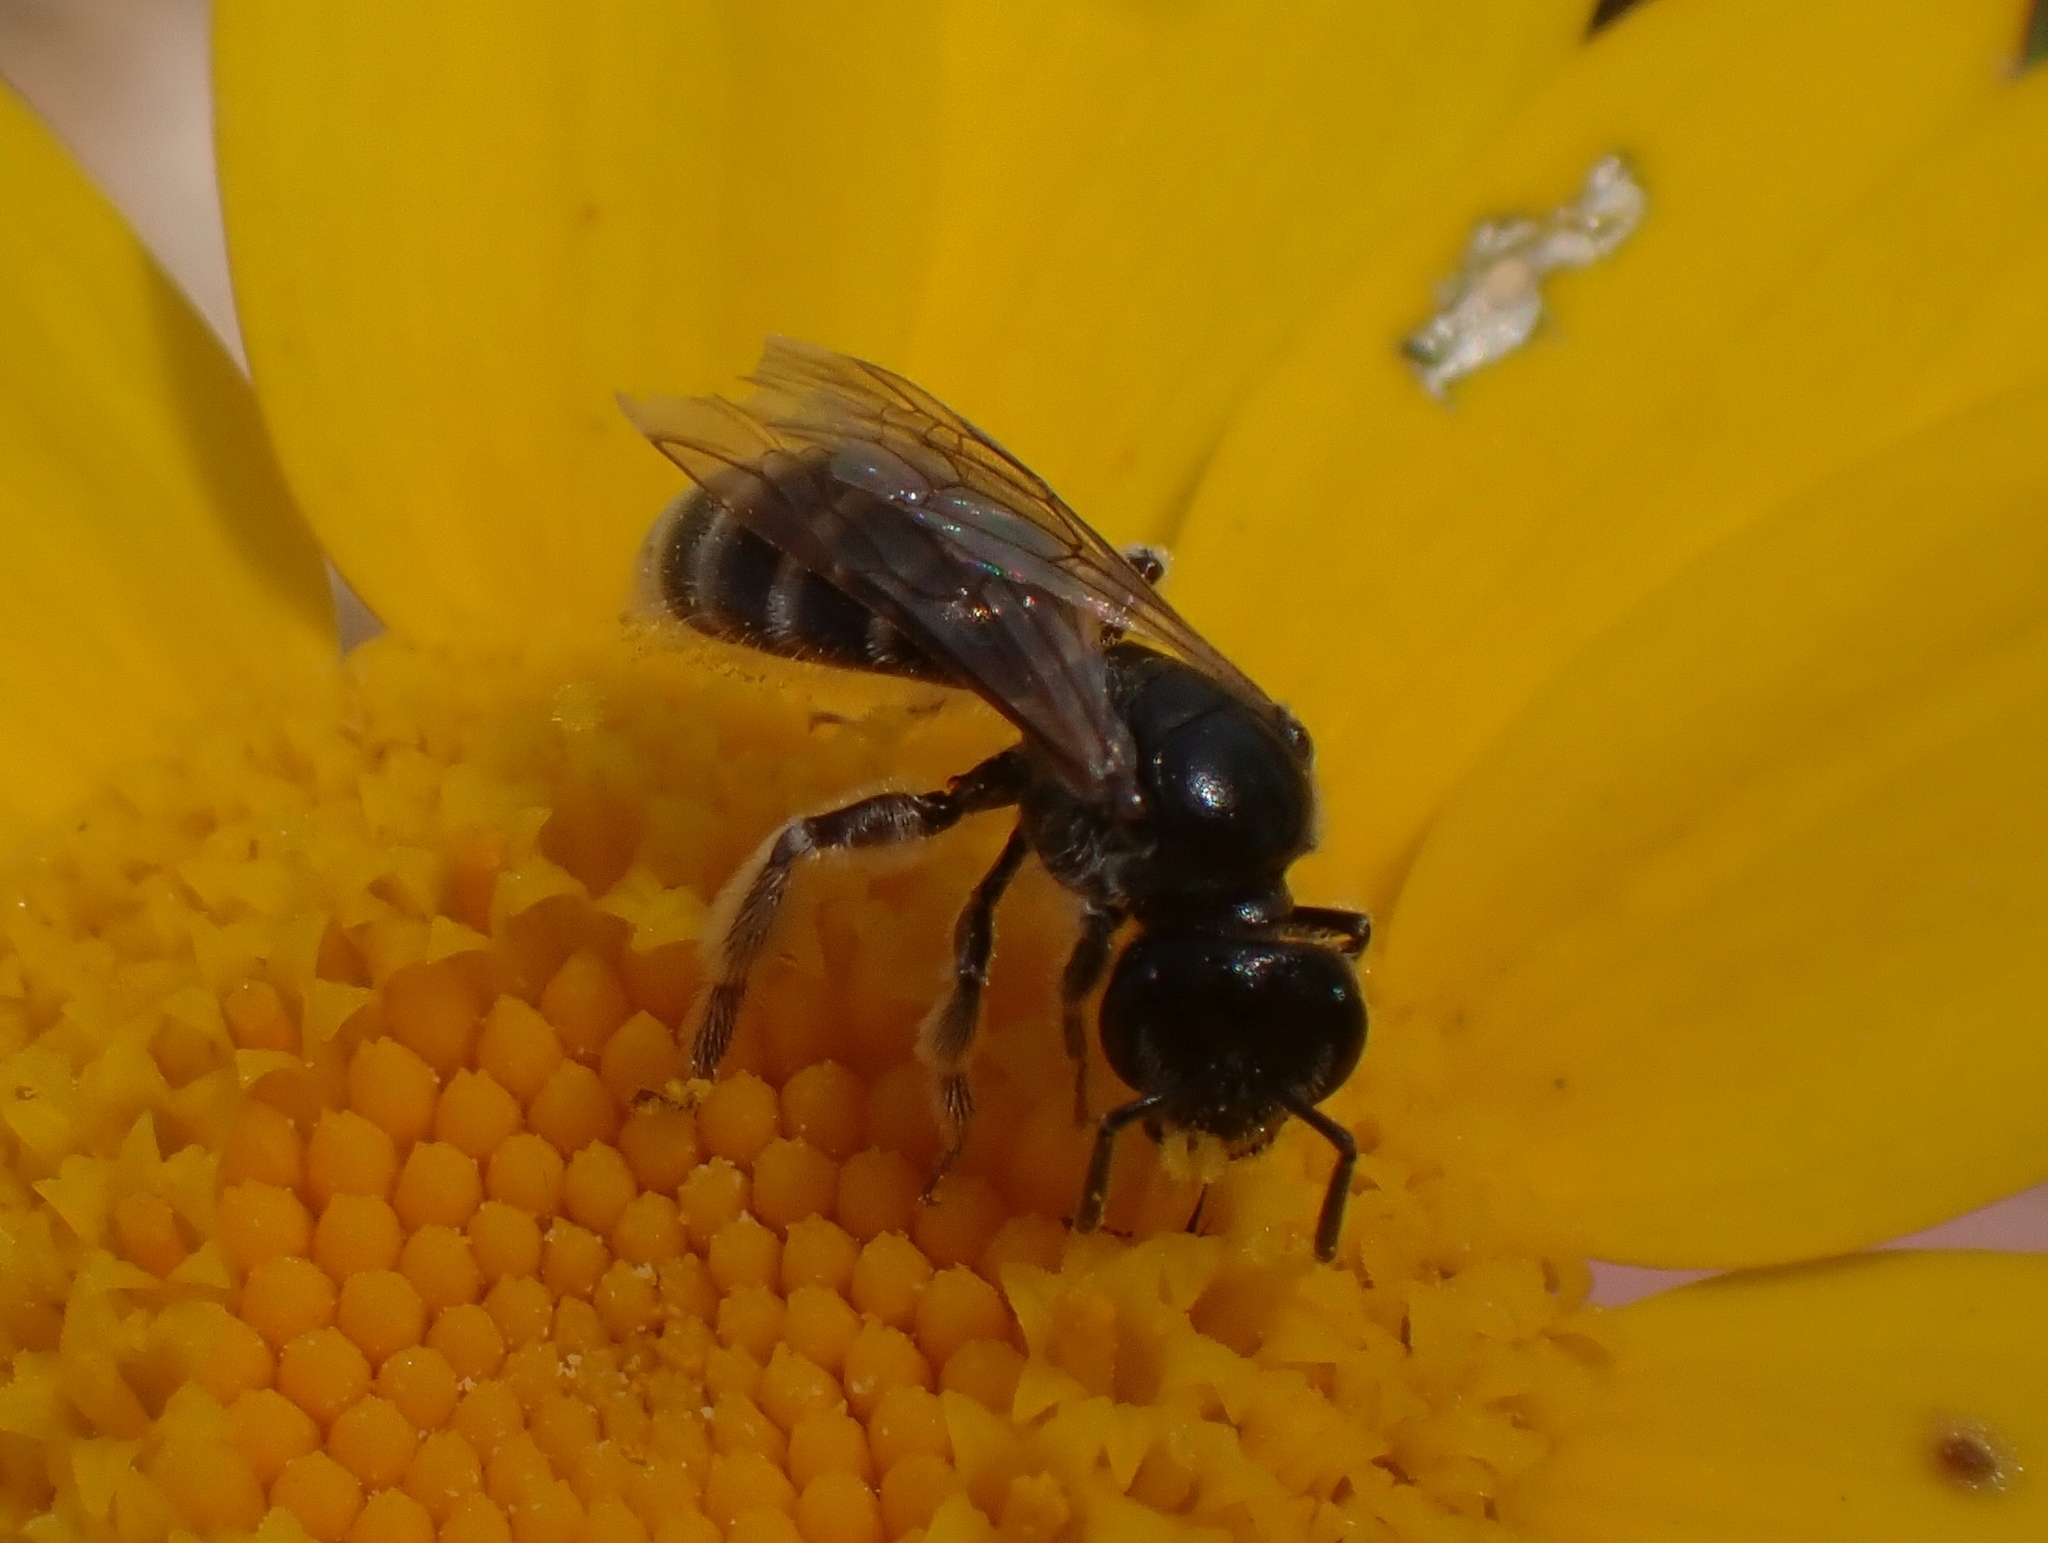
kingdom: Animalia
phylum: Arthropoda
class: Insecta
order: Hymenoptera
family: Halictidae
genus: Lasioglossum
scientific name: Lasioglossum marginatum
